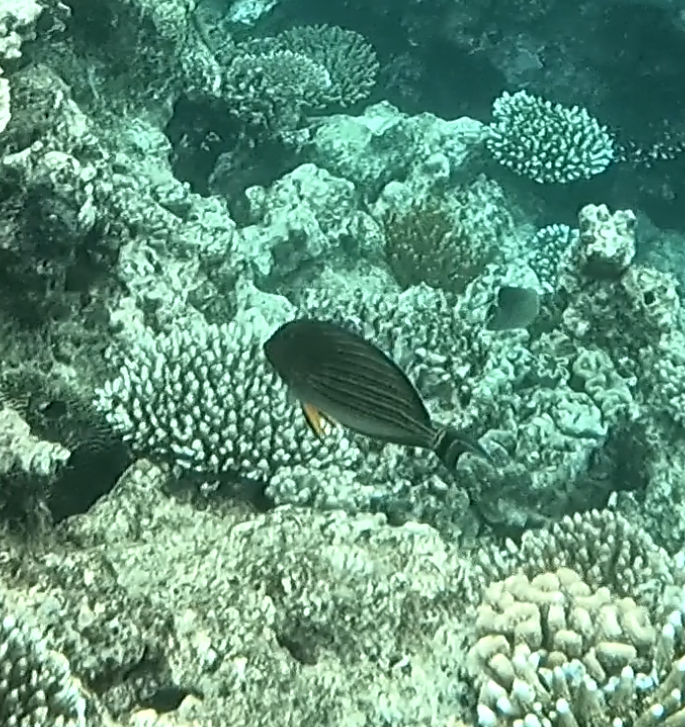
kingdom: Animalia
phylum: Chordata
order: Perciformes
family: Acanthuridae
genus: Acanthurus
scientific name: Acanthurus lineatus
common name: Striped surgeonfish
